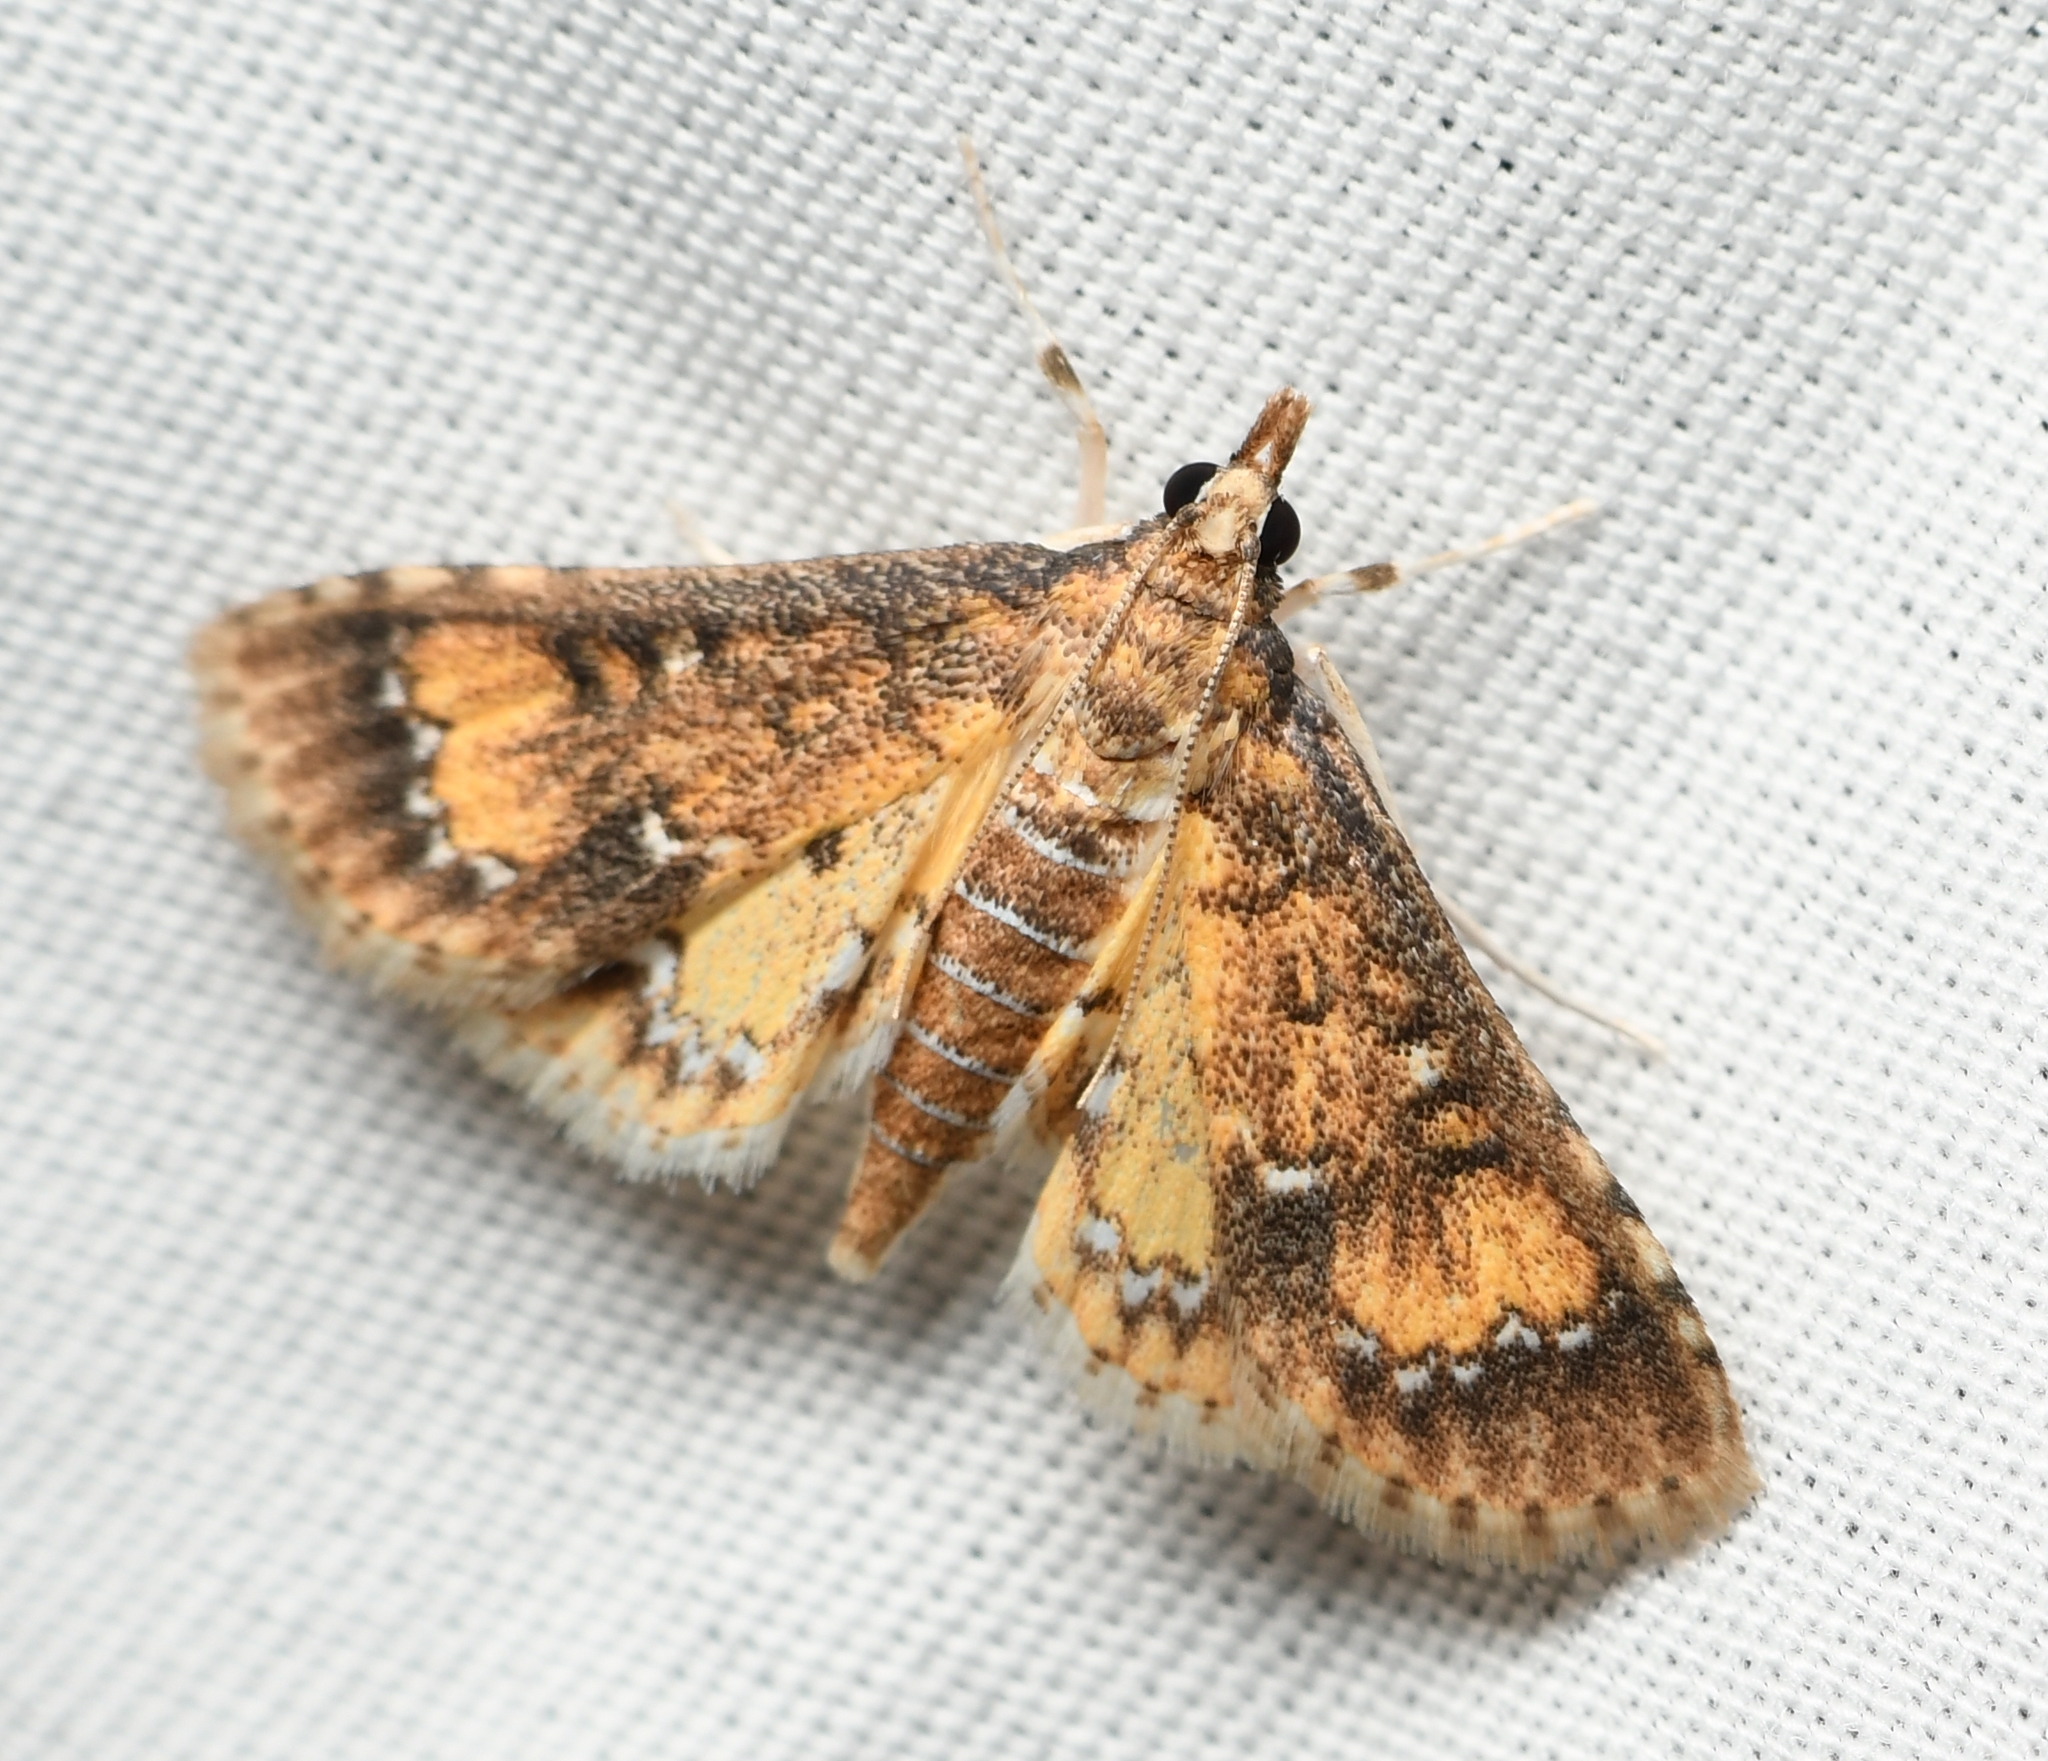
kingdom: Animalia
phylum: Arthropoda
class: Insecta
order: Lepidoptera
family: Crambidae
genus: Niphograpta
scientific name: Niphograpta albiguttalis
